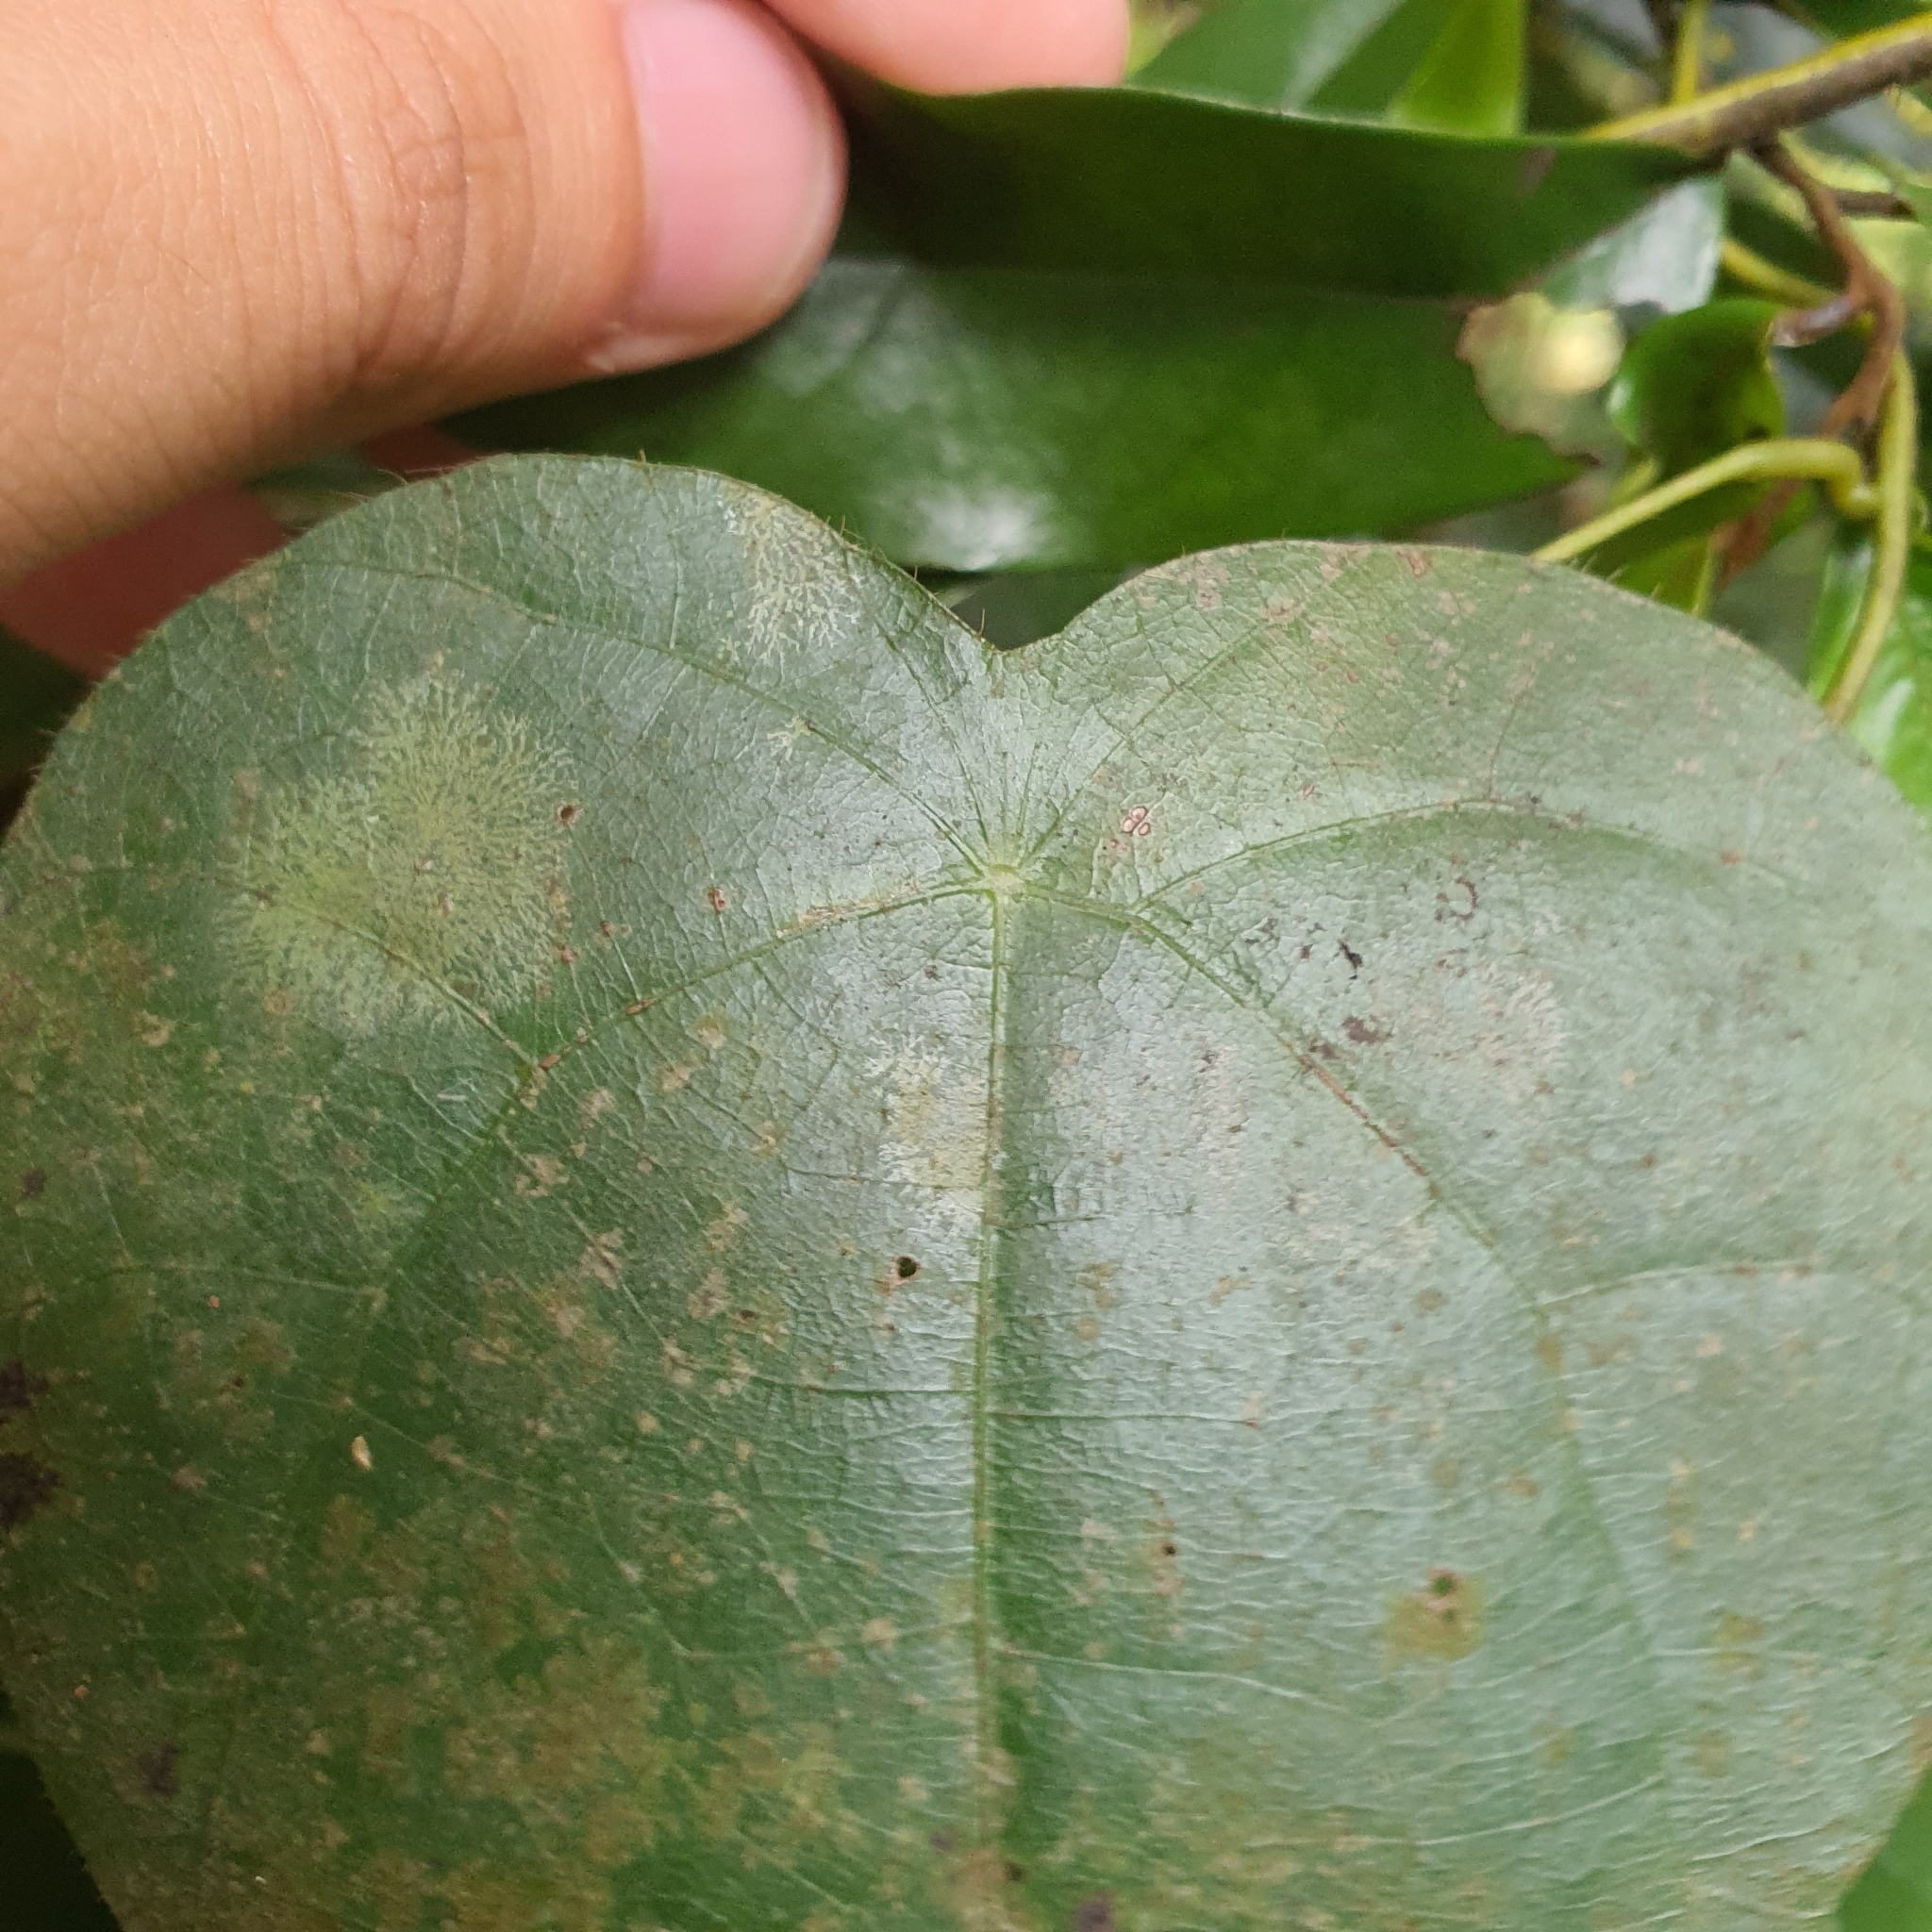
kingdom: Plantae
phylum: Tracheophyta
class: Magnoliopsida
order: Ranunculales
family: Menispermaceae
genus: Cyclea
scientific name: Cyclea laxiflora
